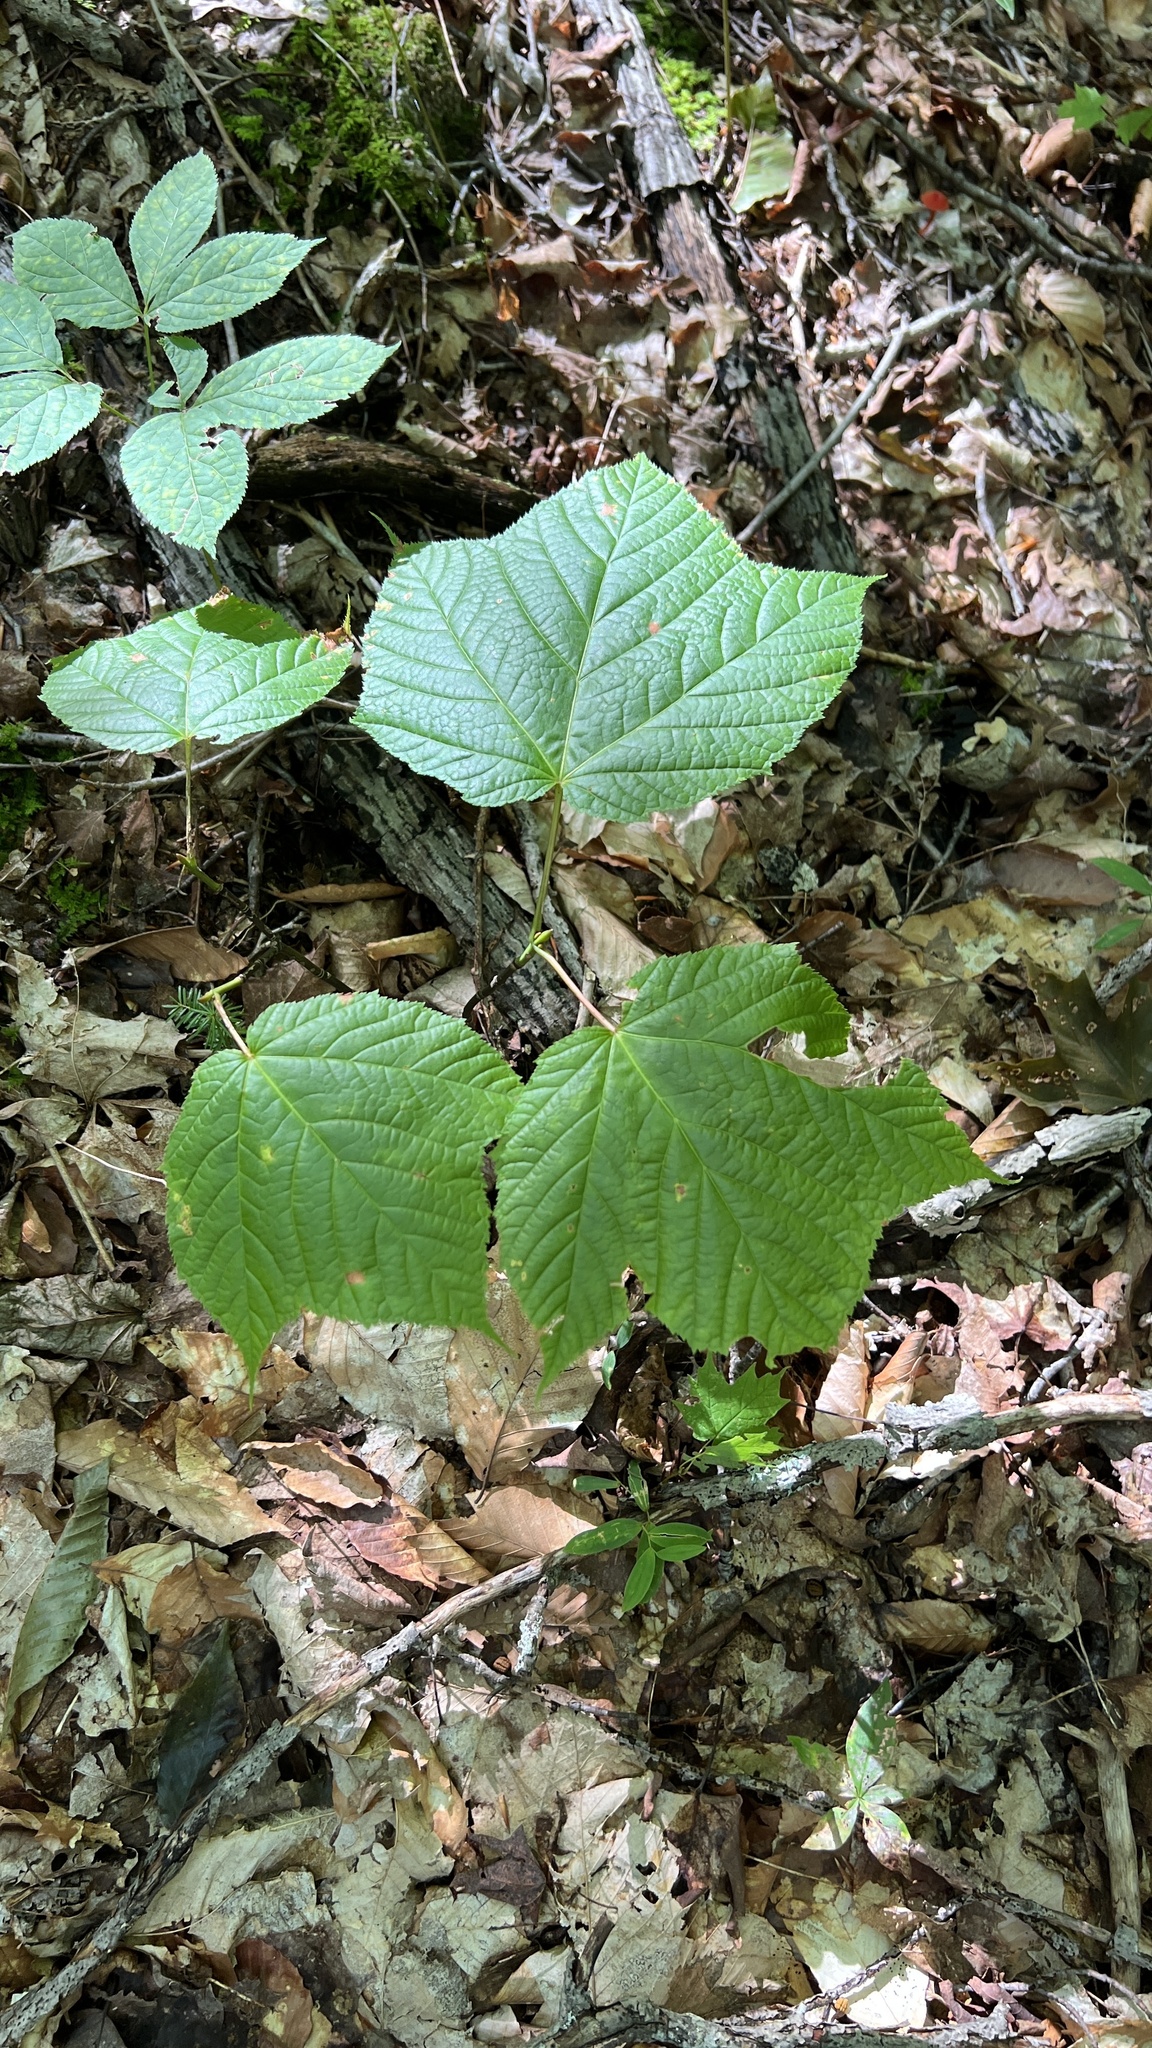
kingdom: Plantae
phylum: Tracheophyta
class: Magnoliopsida
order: Sapindales
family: Sapindaceae
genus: Acer
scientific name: Acer pensylvanicum
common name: Moosewood
